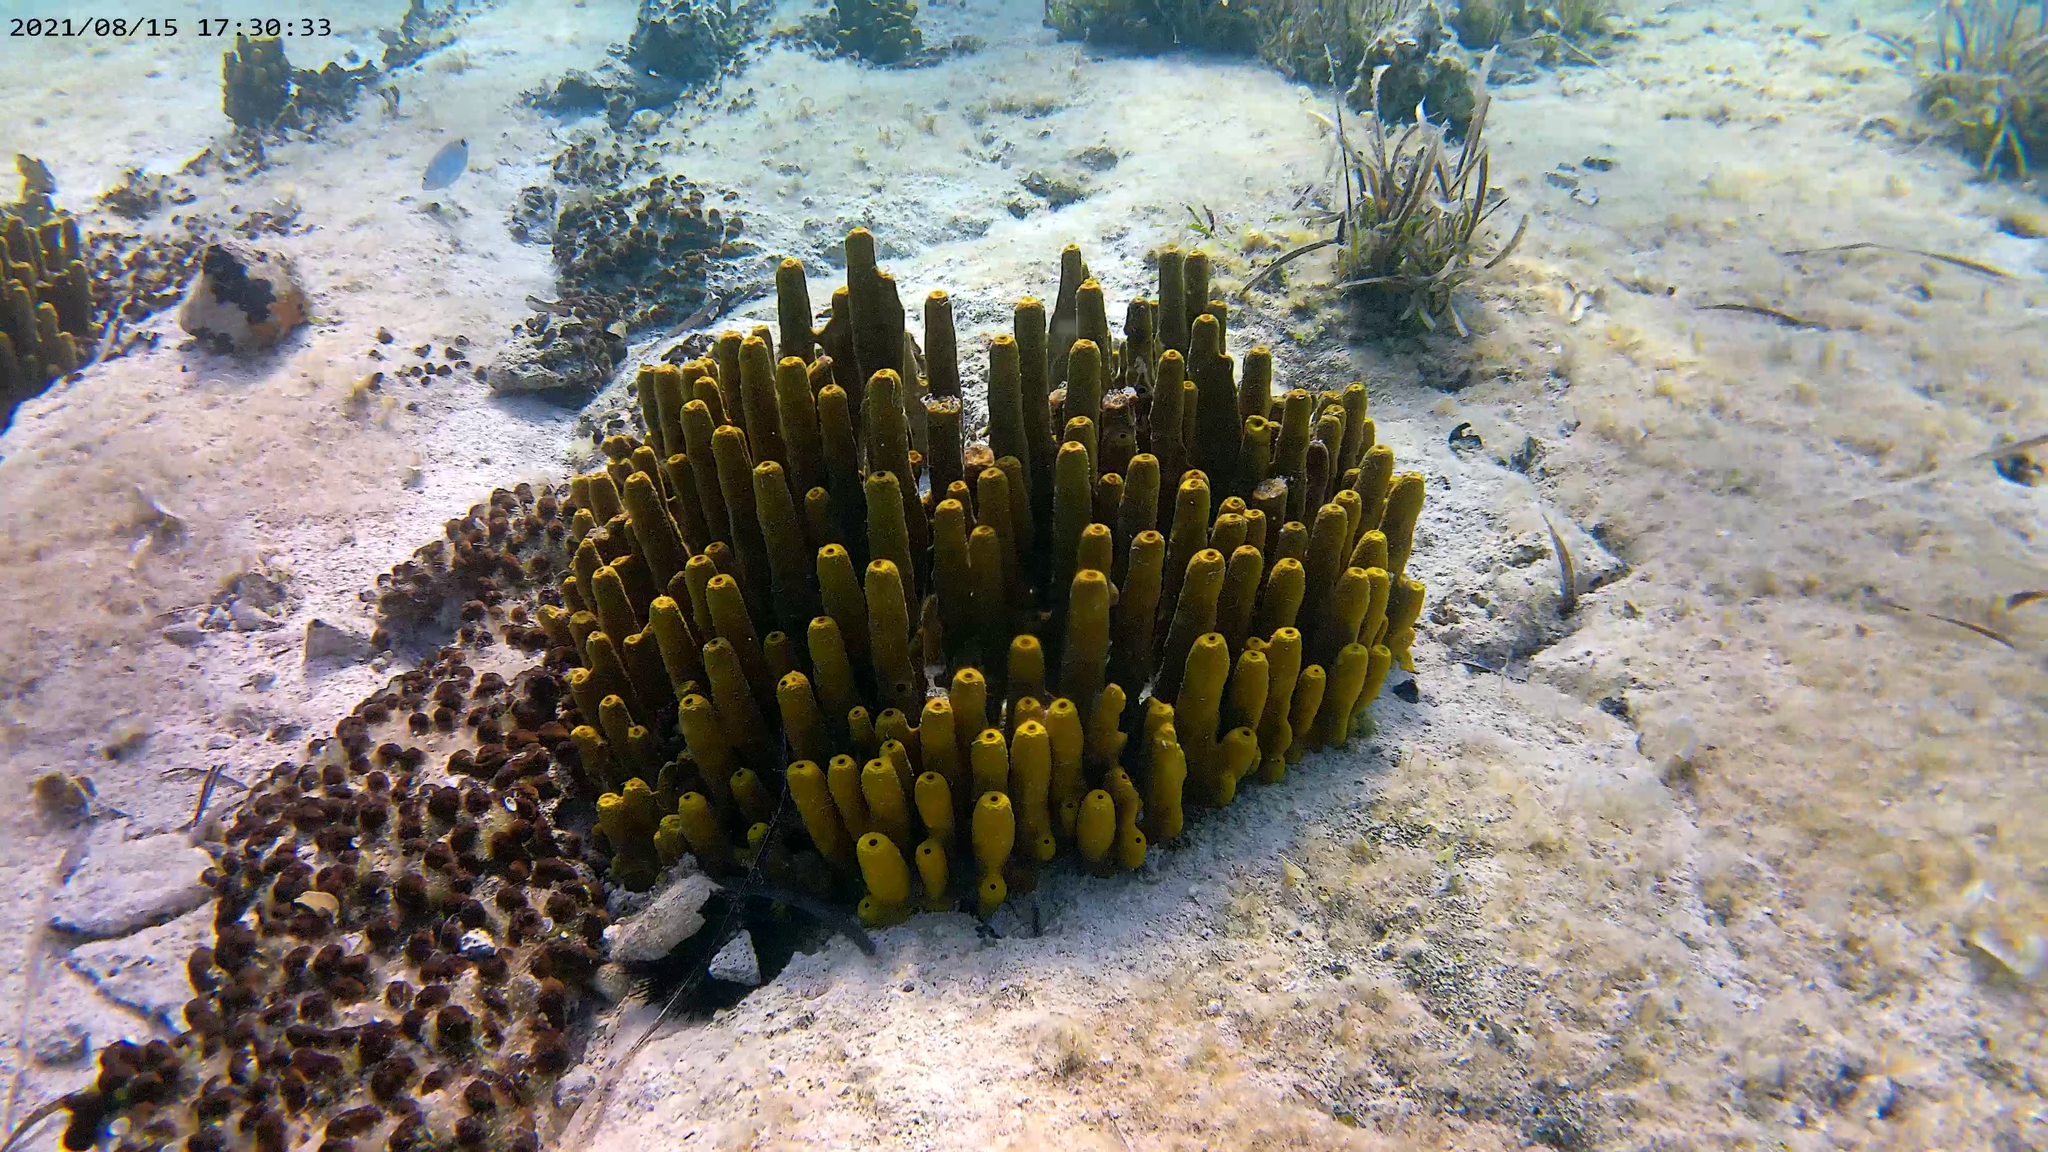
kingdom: Animalia
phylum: Porifera
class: Demospongiae
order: Verongiida
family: Aplysinidae
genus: Aplysina
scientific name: Aplysina aerophoba
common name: Aureate sponge
